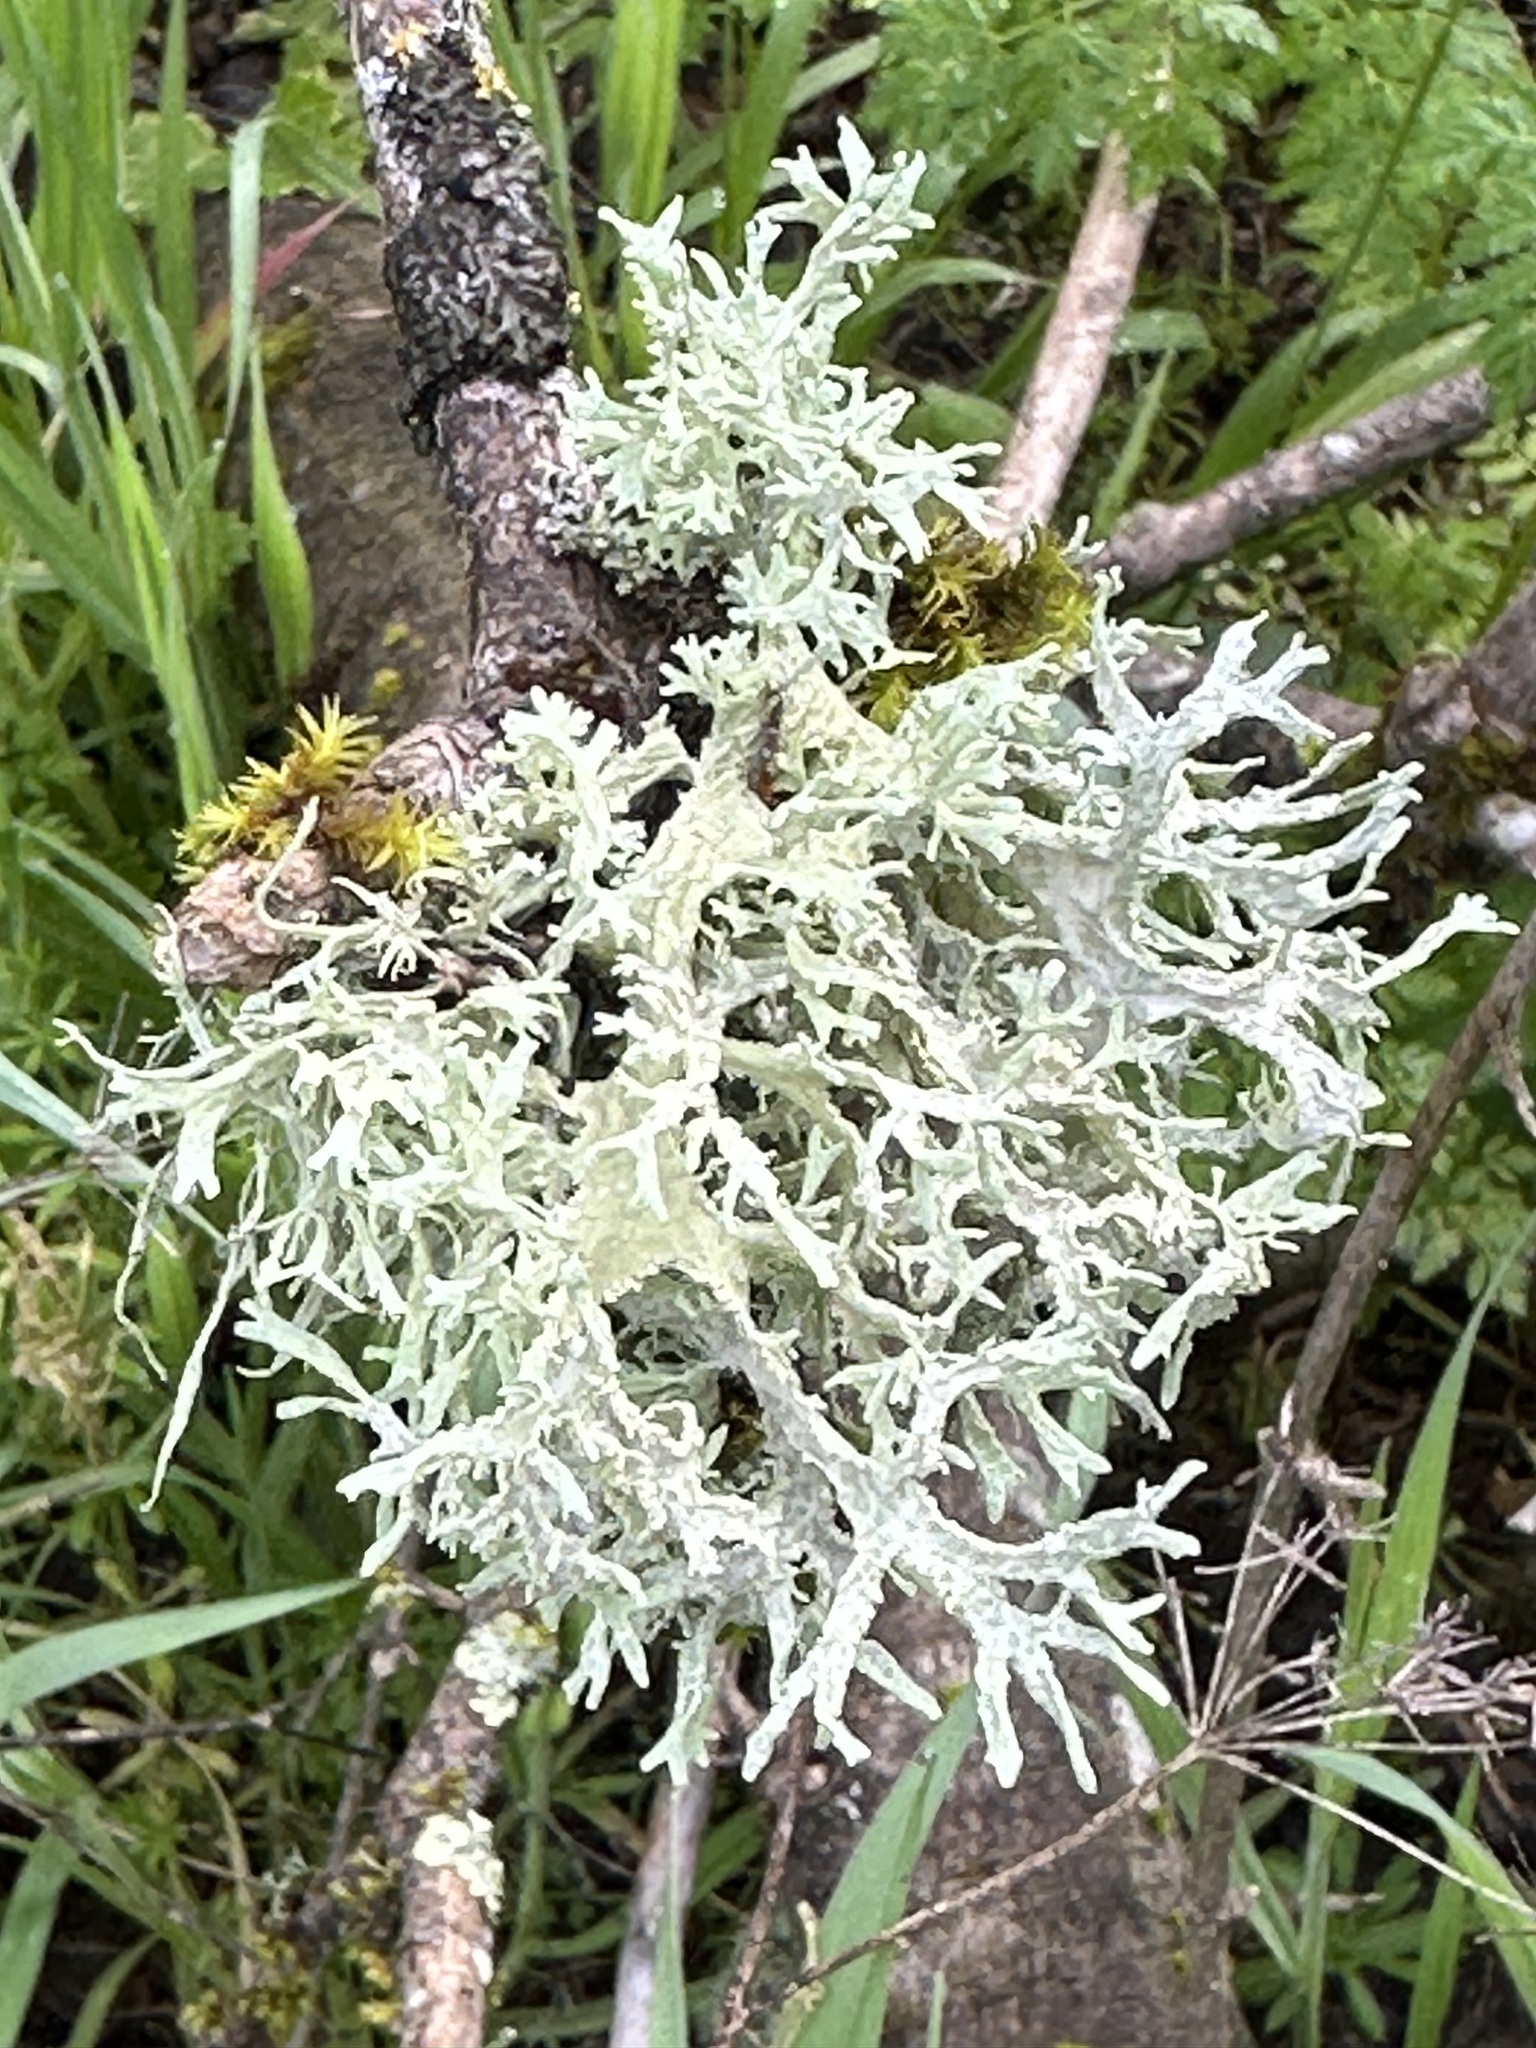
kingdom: Fungi
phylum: Ascomycota
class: Lecanoromycetes
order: Lecanorales
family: Parmeliaceae
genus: Evernia
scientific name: Evernia prunastri
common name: Oak moss
